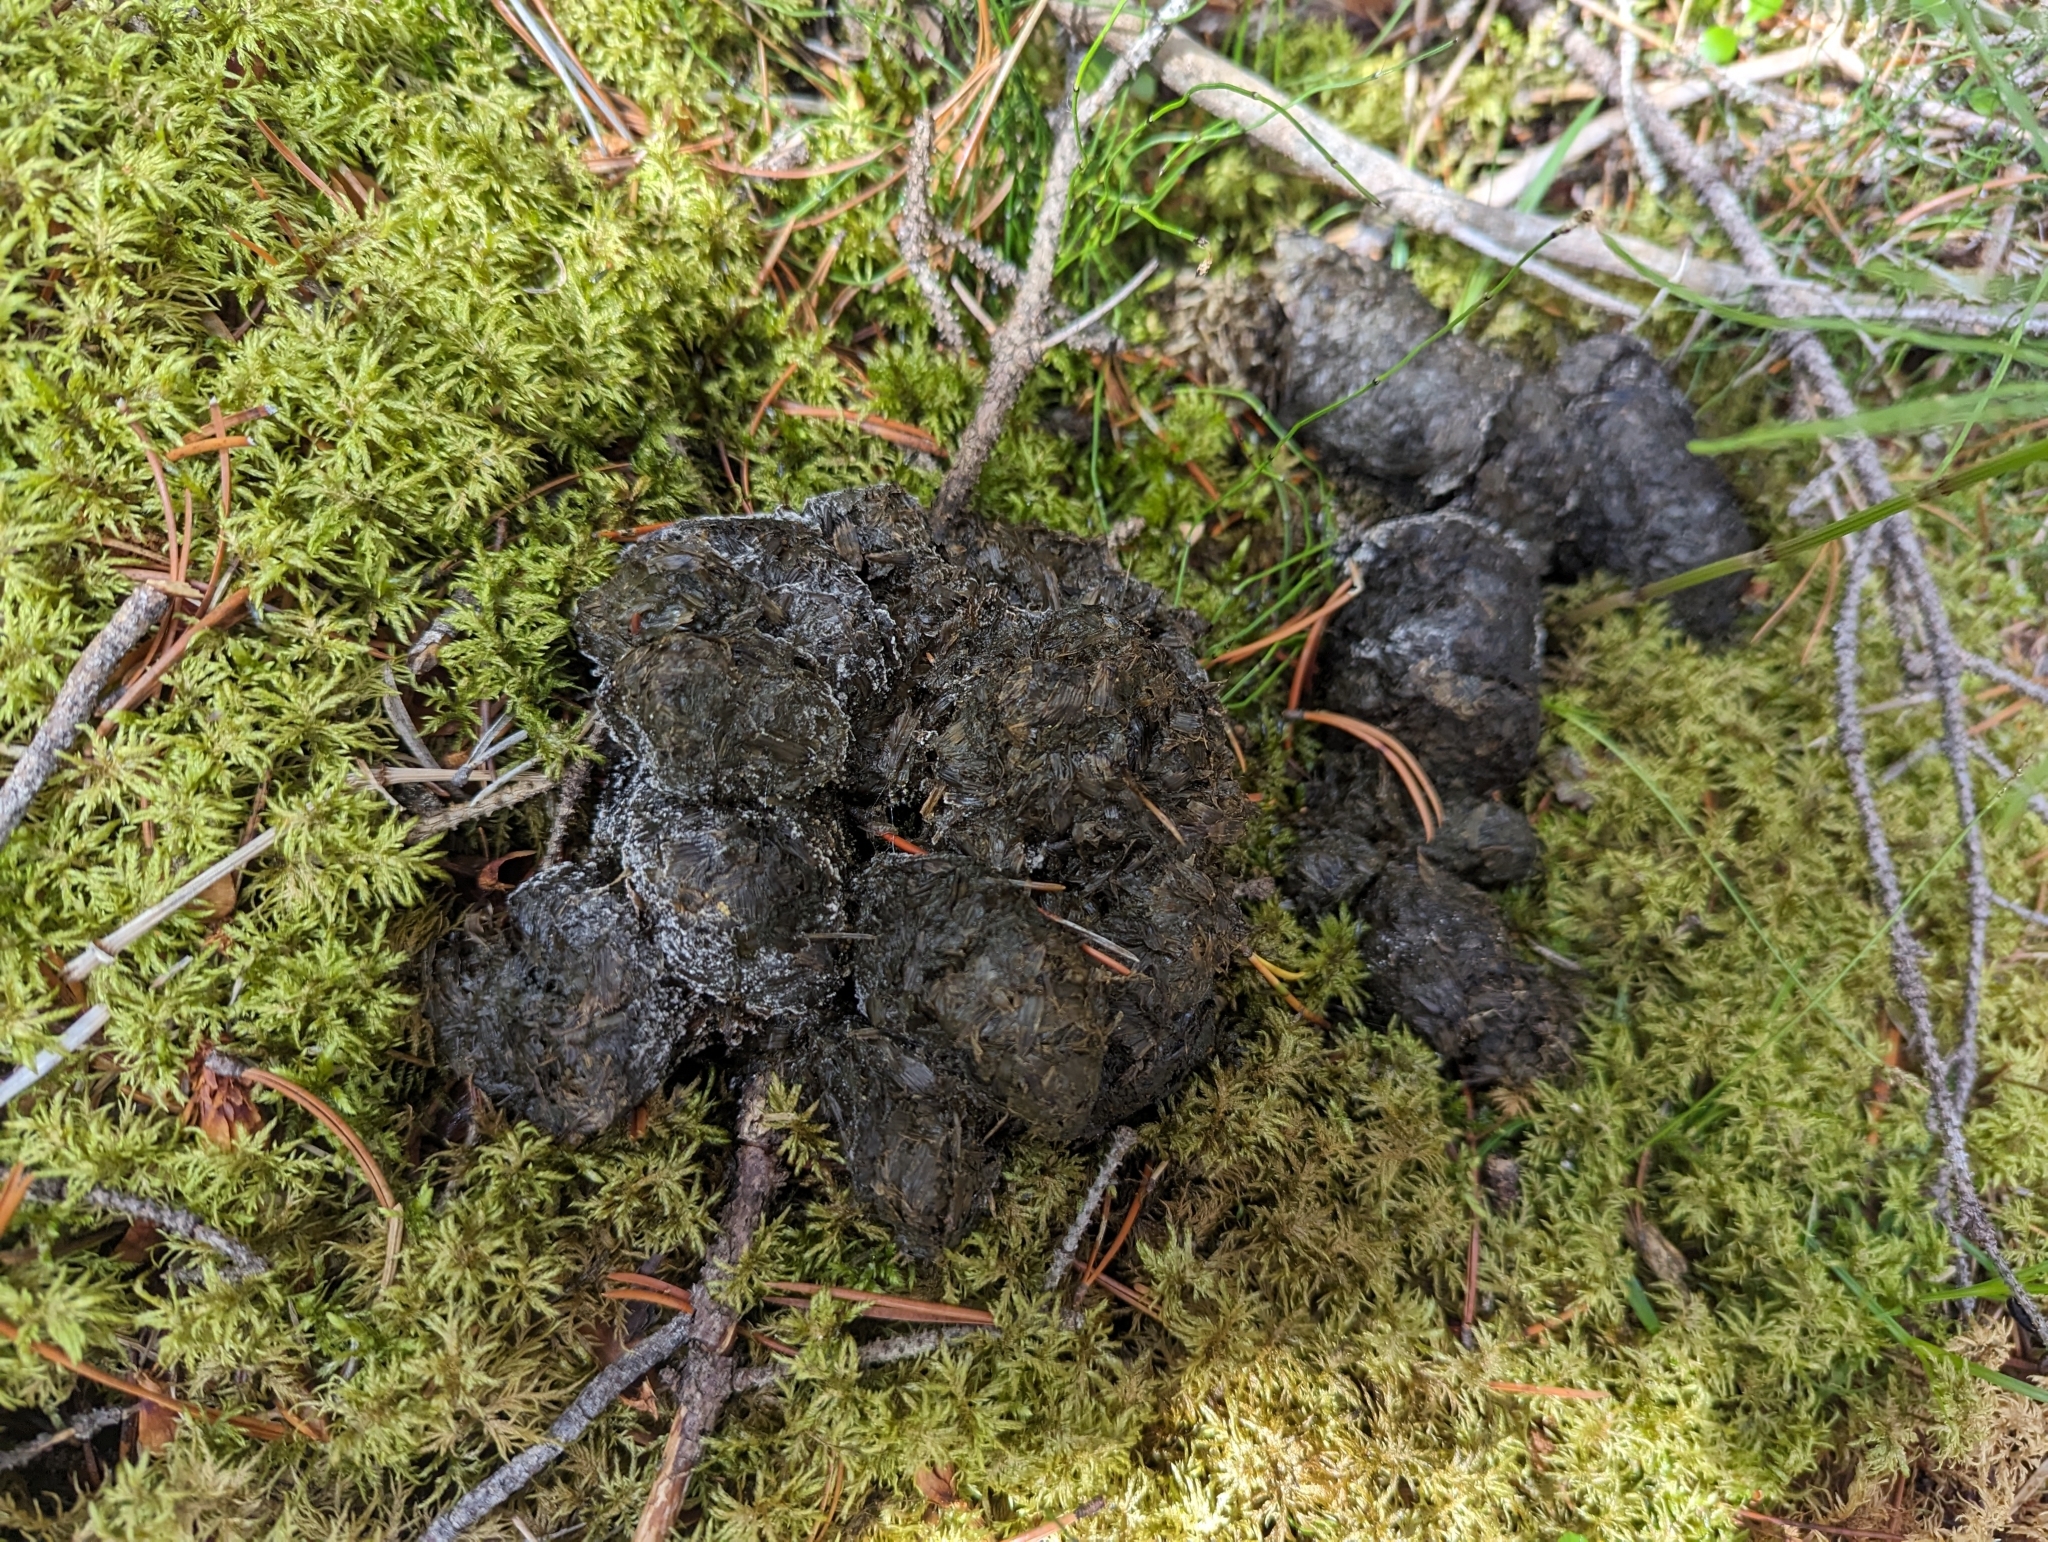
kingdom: Animalia
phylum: Chordata
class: Mammalia
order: Carnivora
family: Ursidae
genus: Ursus
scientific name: Ursus americanus
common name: American black bear
